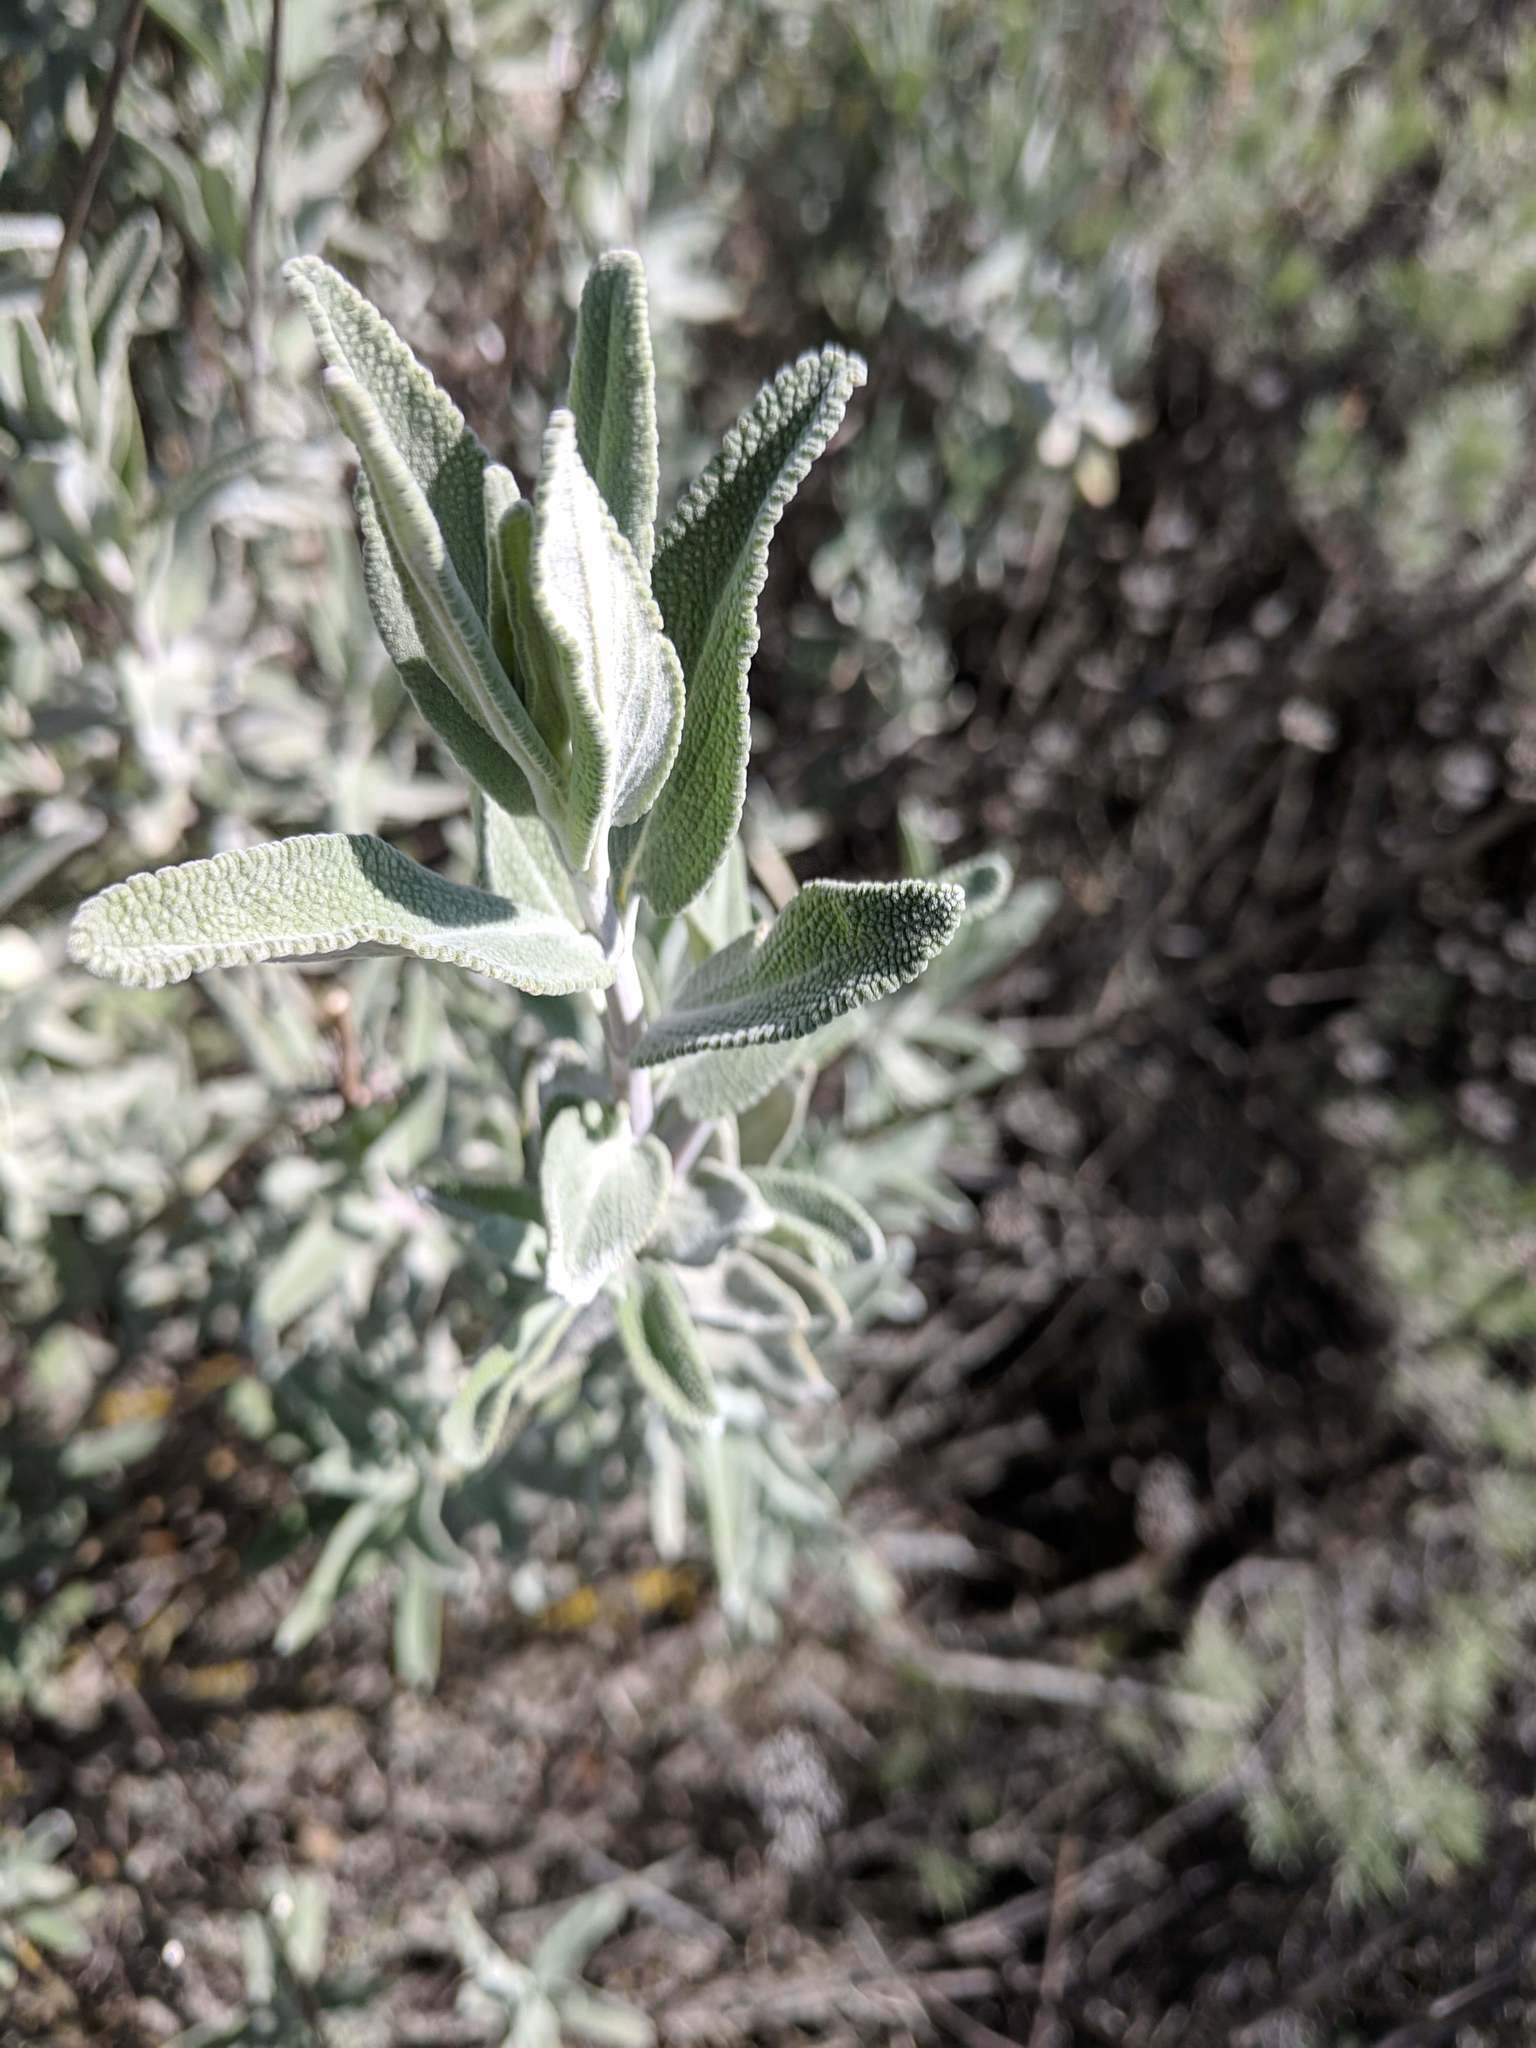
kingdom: Plantae
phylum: Tracheophyta
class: Magnoliopsida
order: Lamiales
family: Lamiaceae
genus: Salvia
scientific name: Salvia leucophylla
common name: Purple sage
